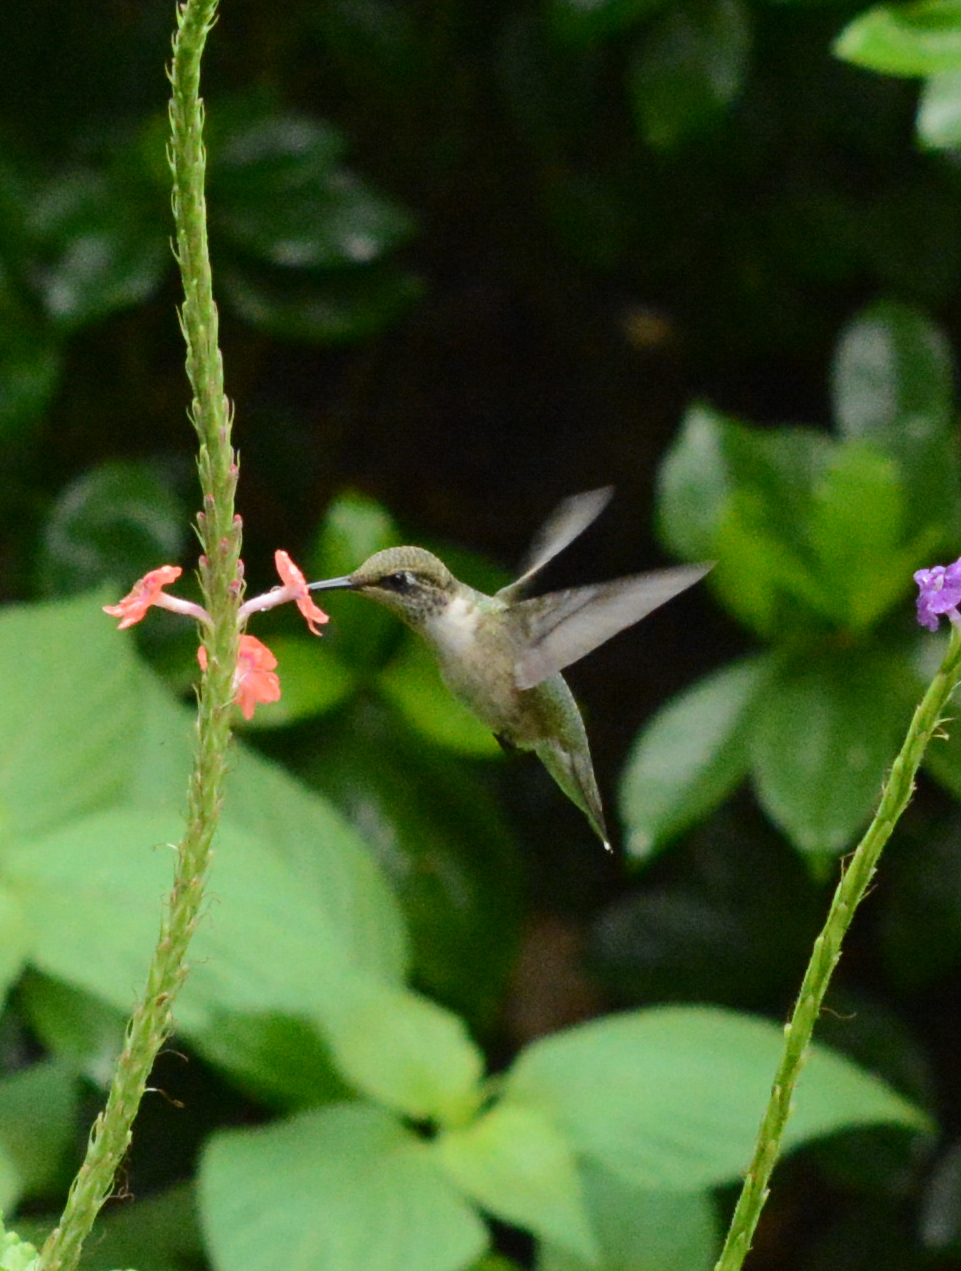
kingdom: Animalia
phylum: Chordata
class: Aves
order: Apodiformes
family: Trochilidae
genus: Archilochus
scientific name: Archilochus colubris
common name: Ruby-throated hummingbird
